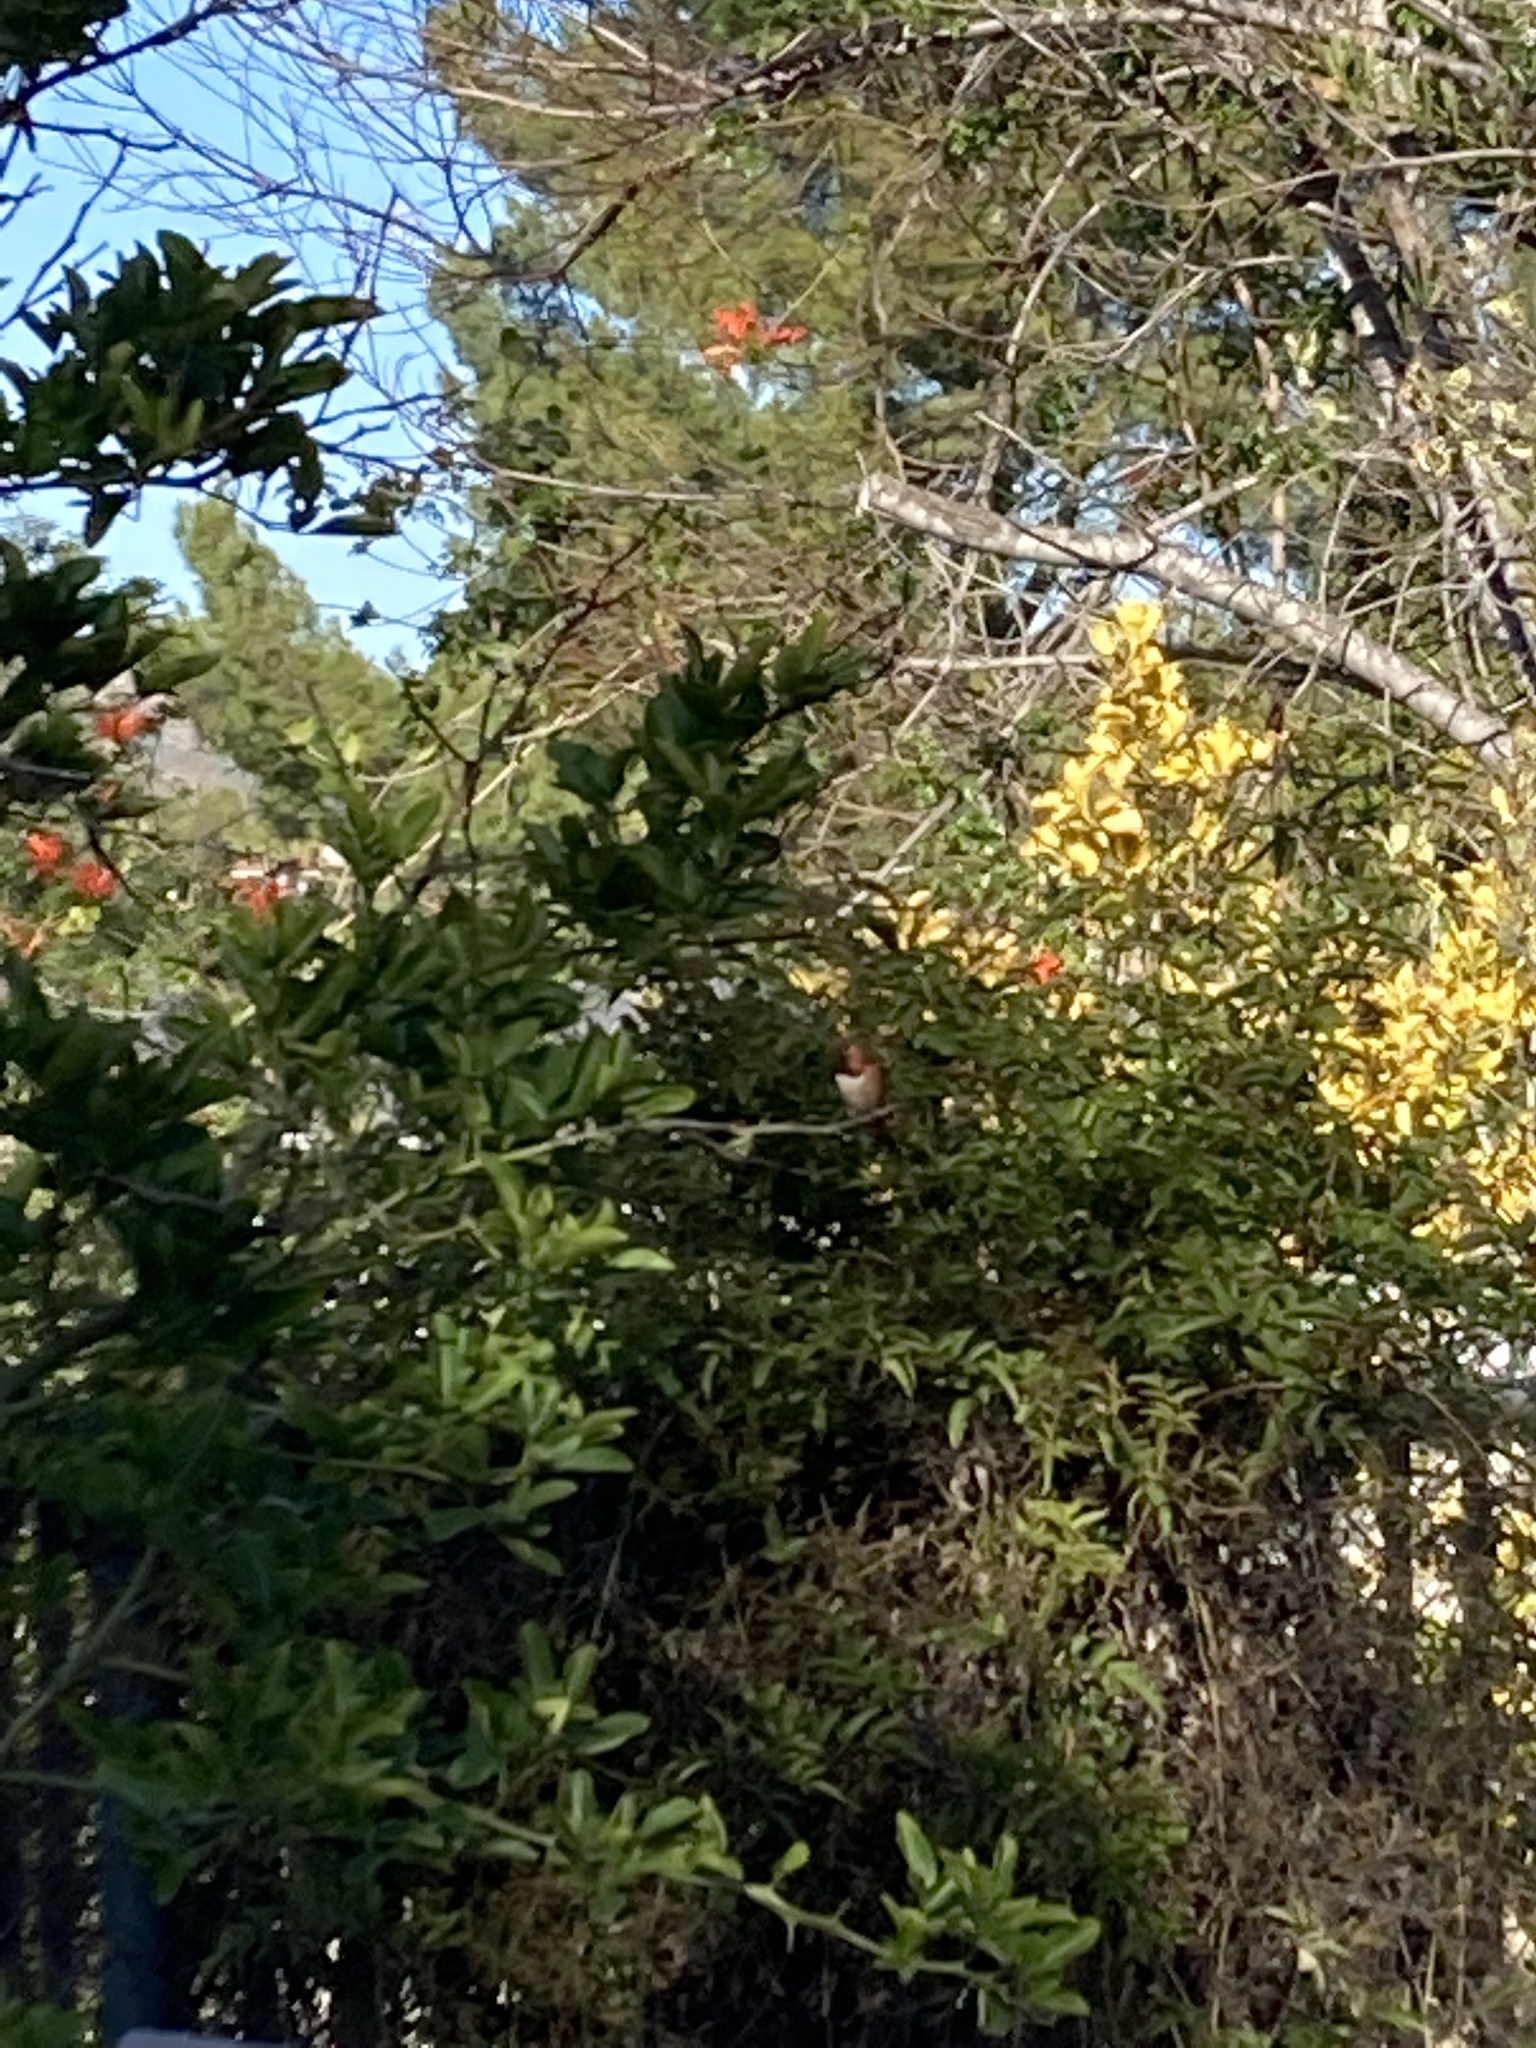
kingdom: Animalia
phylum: Chordata
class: Aves
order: Apodiformes
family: Trochilidae
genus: Selasphorus
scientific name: Selasphorus sasin
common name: Allen's hummingbird
